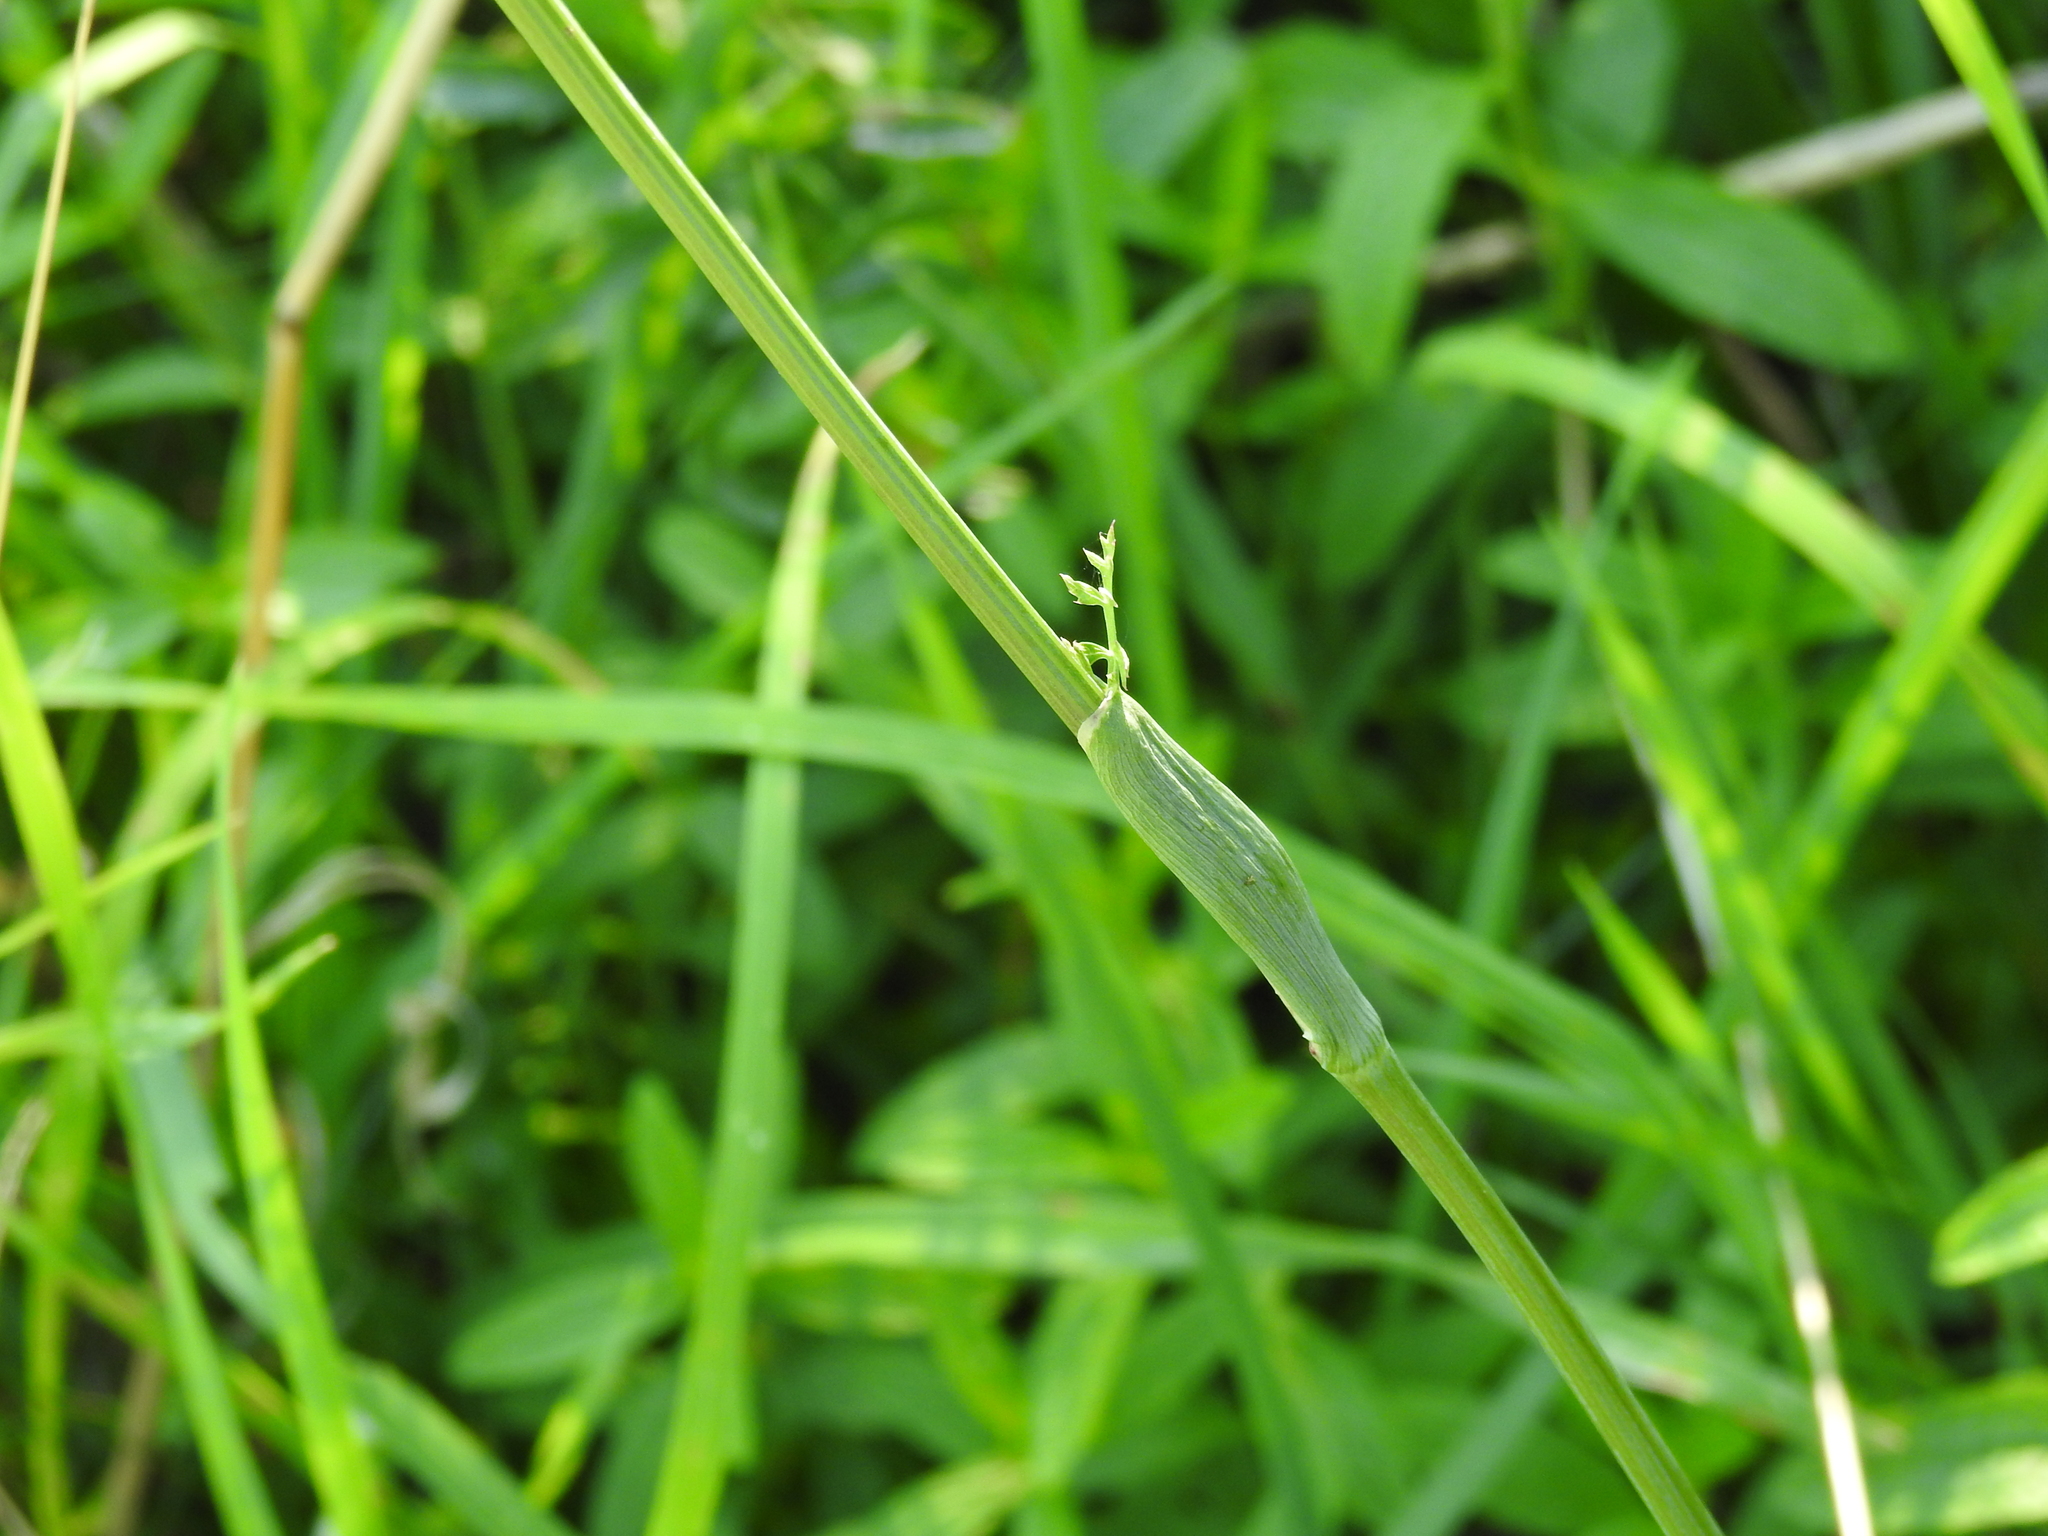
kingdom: Plantae
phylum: Tracheophyta
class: Magnoliopsida
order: Apiales
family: Apiaceae
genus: Cervaria
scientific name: Cervaria rivini
